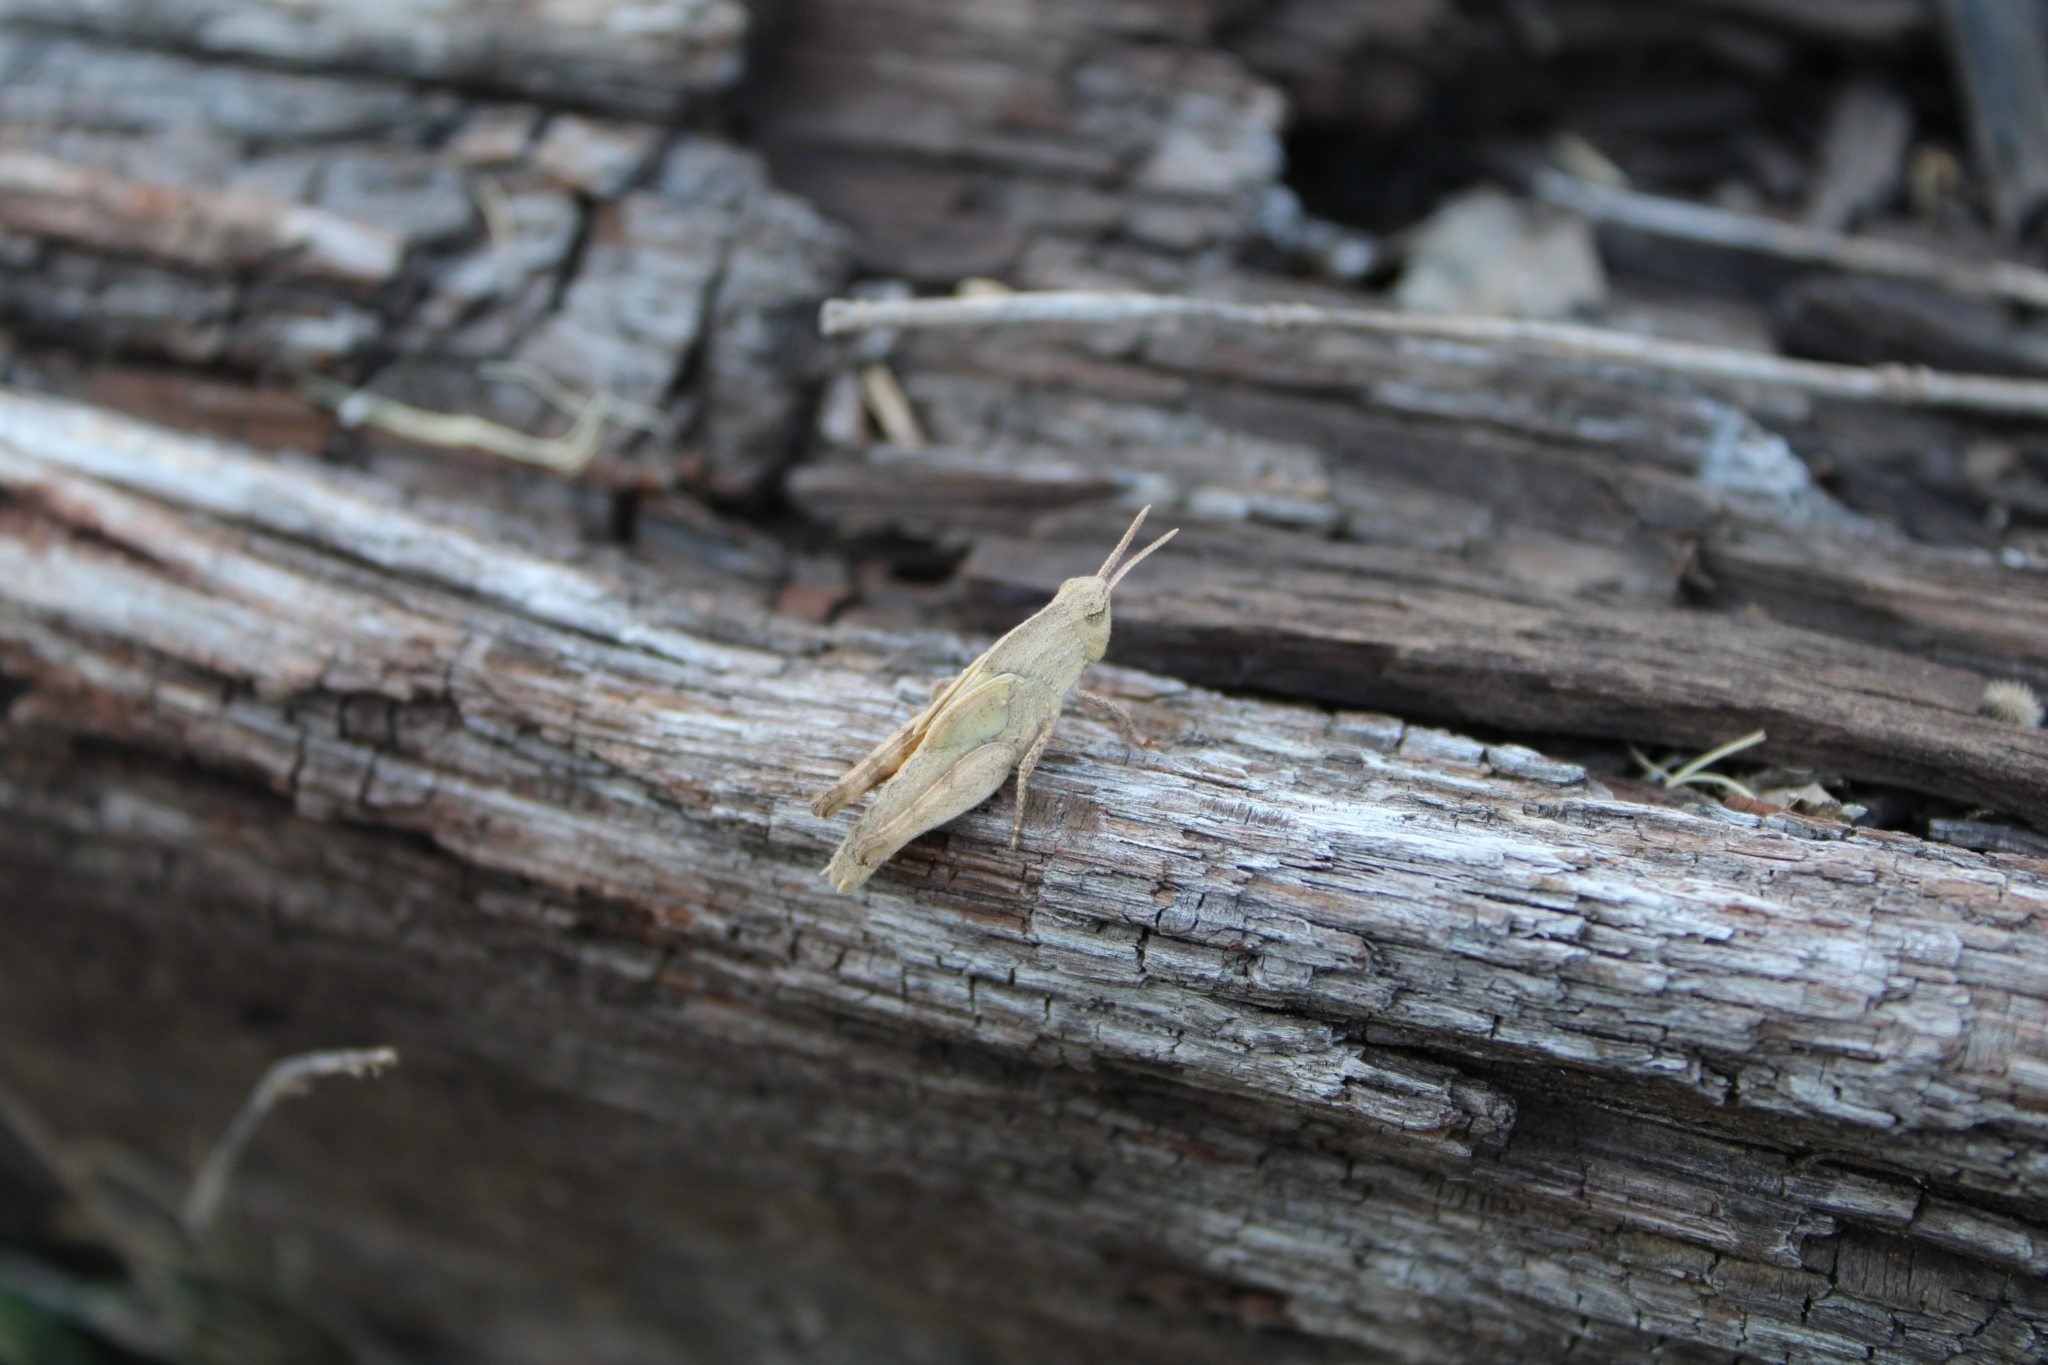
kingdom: Animalia
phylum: Arthropoda
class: Insecta
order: Orthoptera
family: Acrididae
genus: Chortophaga
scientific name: Chortophaga viridifasciata
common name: Green-striped grasshopper
